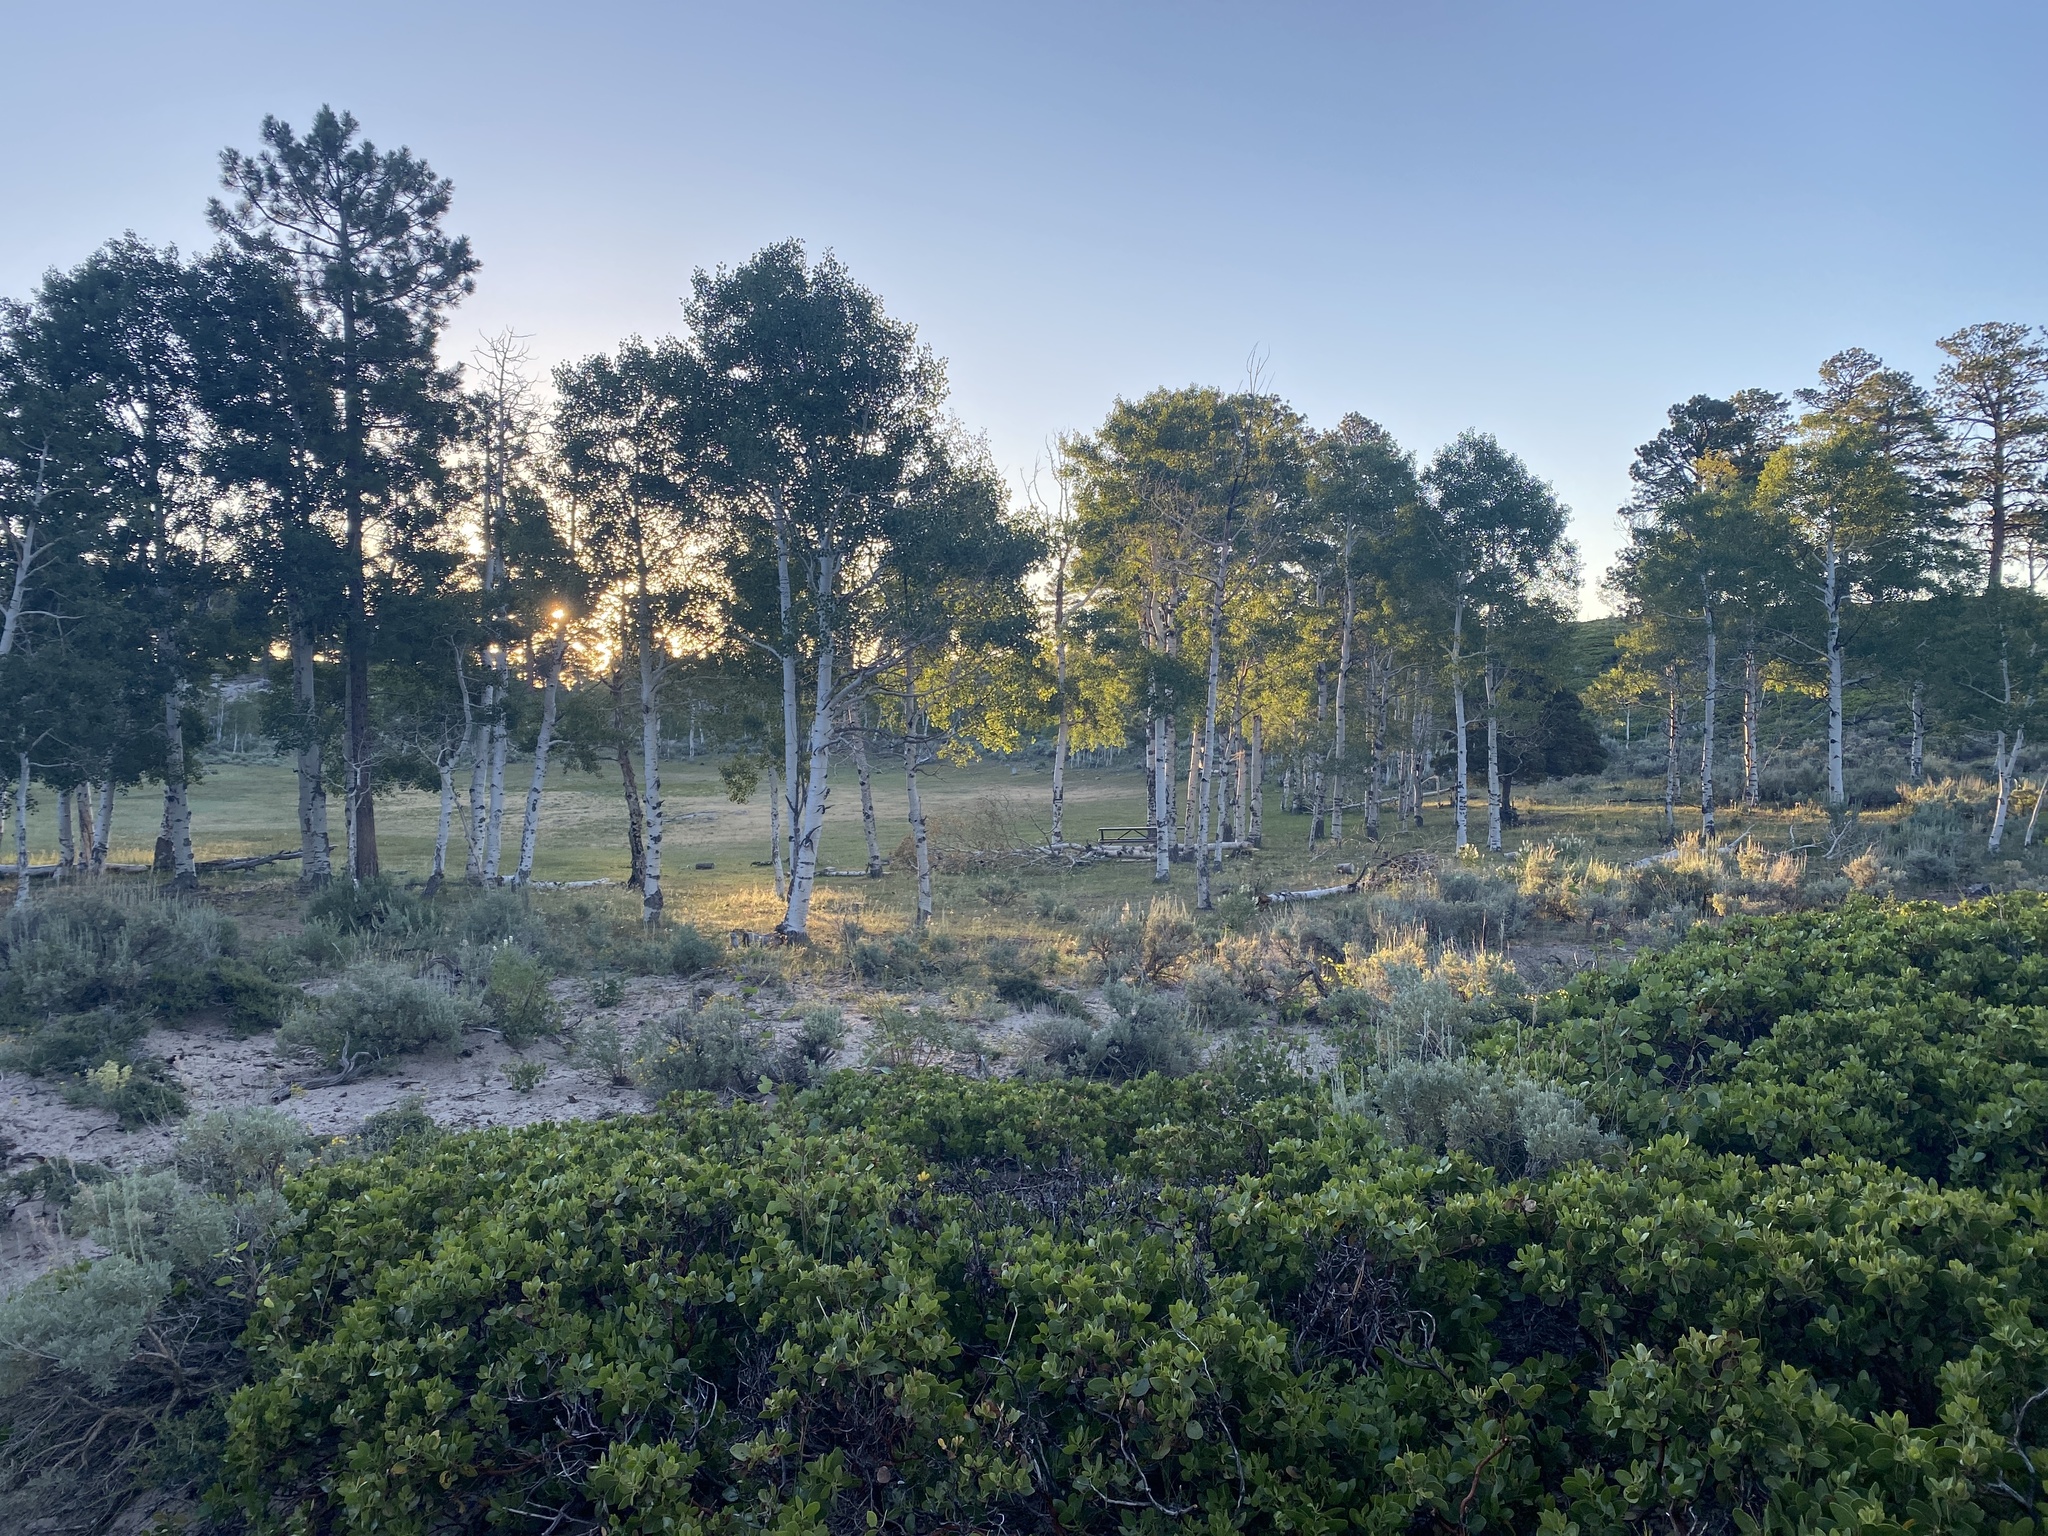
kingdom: Plantae
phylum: Tracheophyta
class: Magnoliopsida
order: Malpighiales
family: Salicaceae
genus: Populus
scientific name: Populus tremuloides
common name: Quaking aspen
